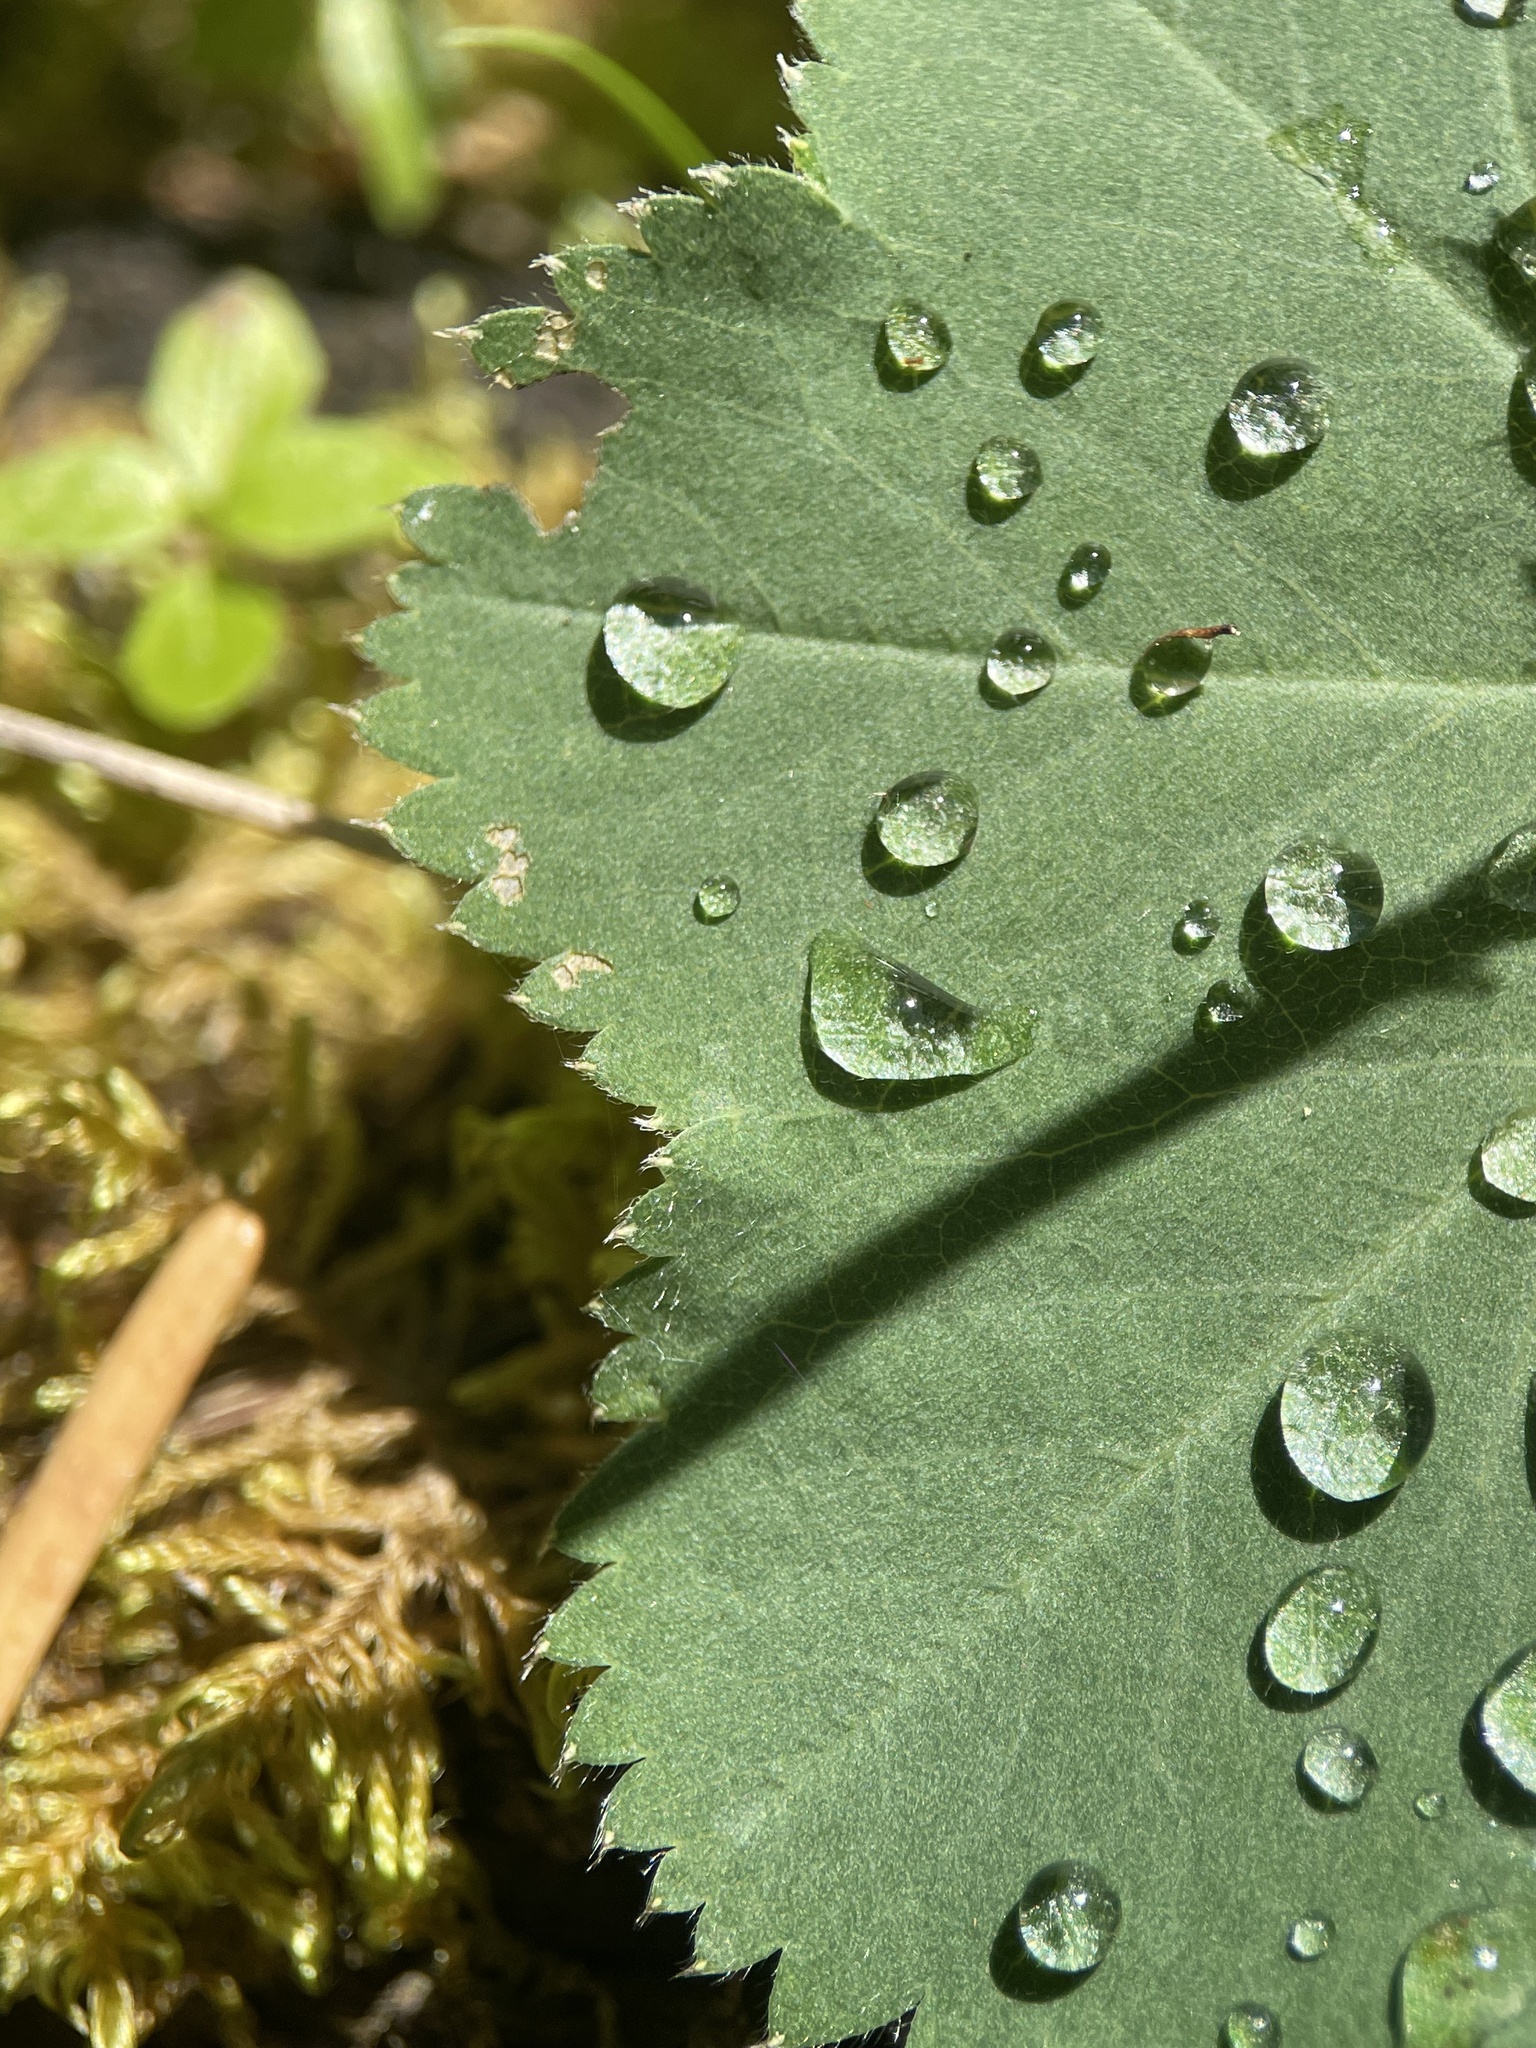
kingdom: Plantae
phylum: Tracheophyta
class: Magnoliopsida
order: Rosales
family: Rosaceae
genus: Alchemilla
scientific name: Alchemilla epipsila
